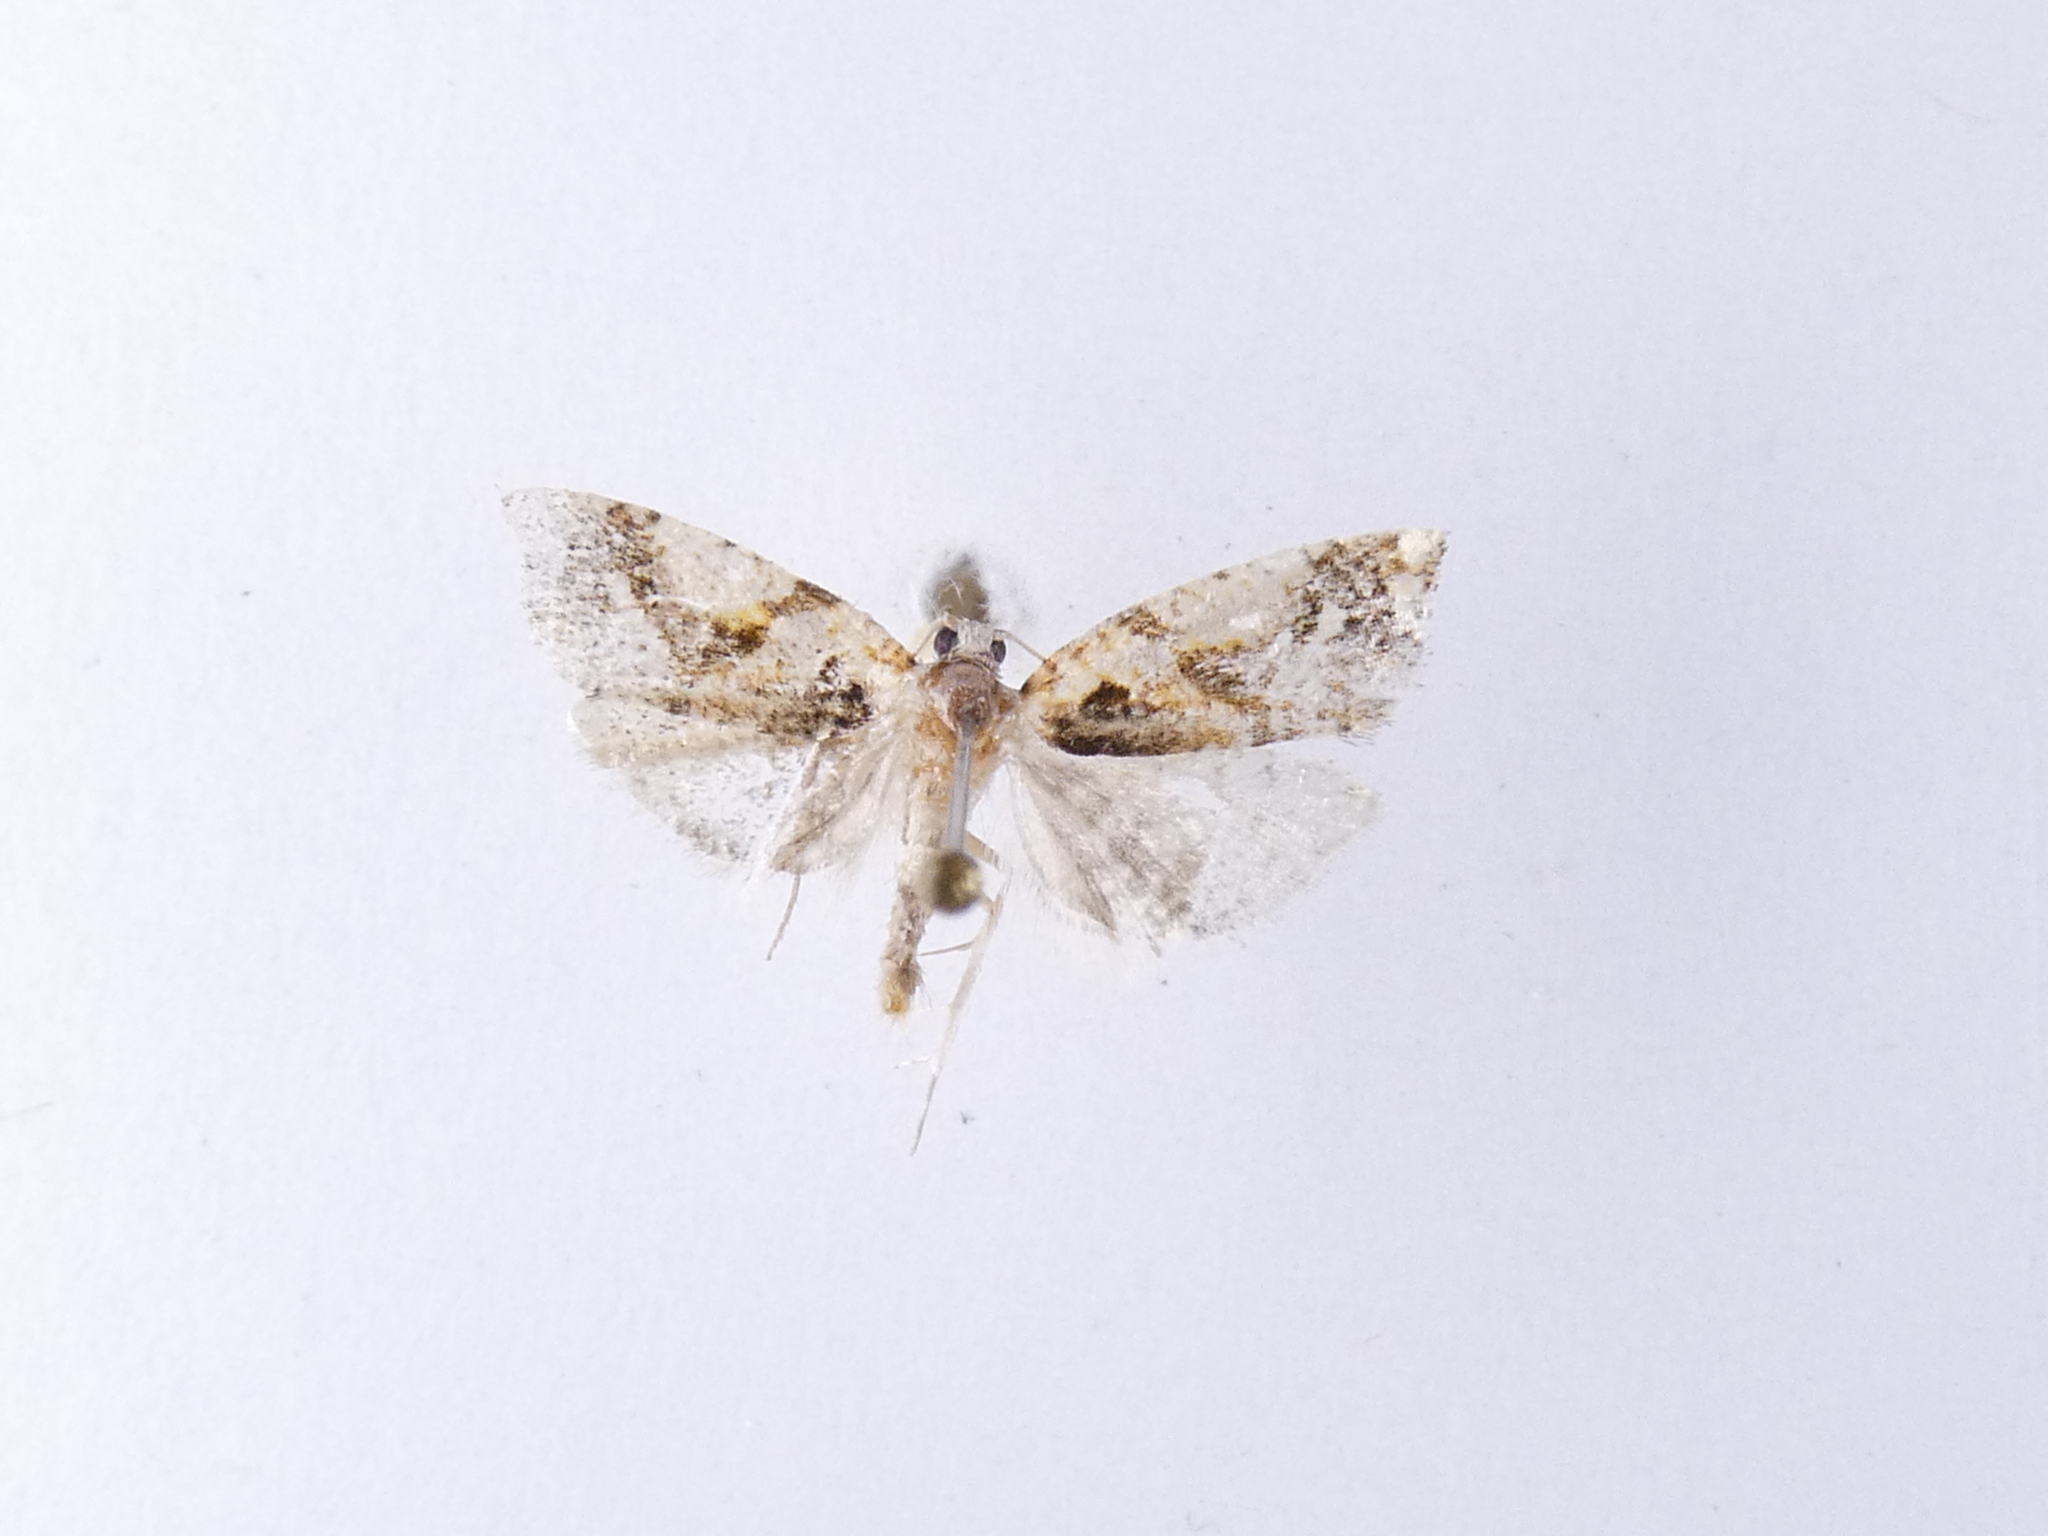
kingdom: Animalia
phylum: Arthropoda
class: Insecta
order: Lepidoptera
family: Tortricidae
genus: Pyrgotis
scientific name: Pyrgotis plagiatana
